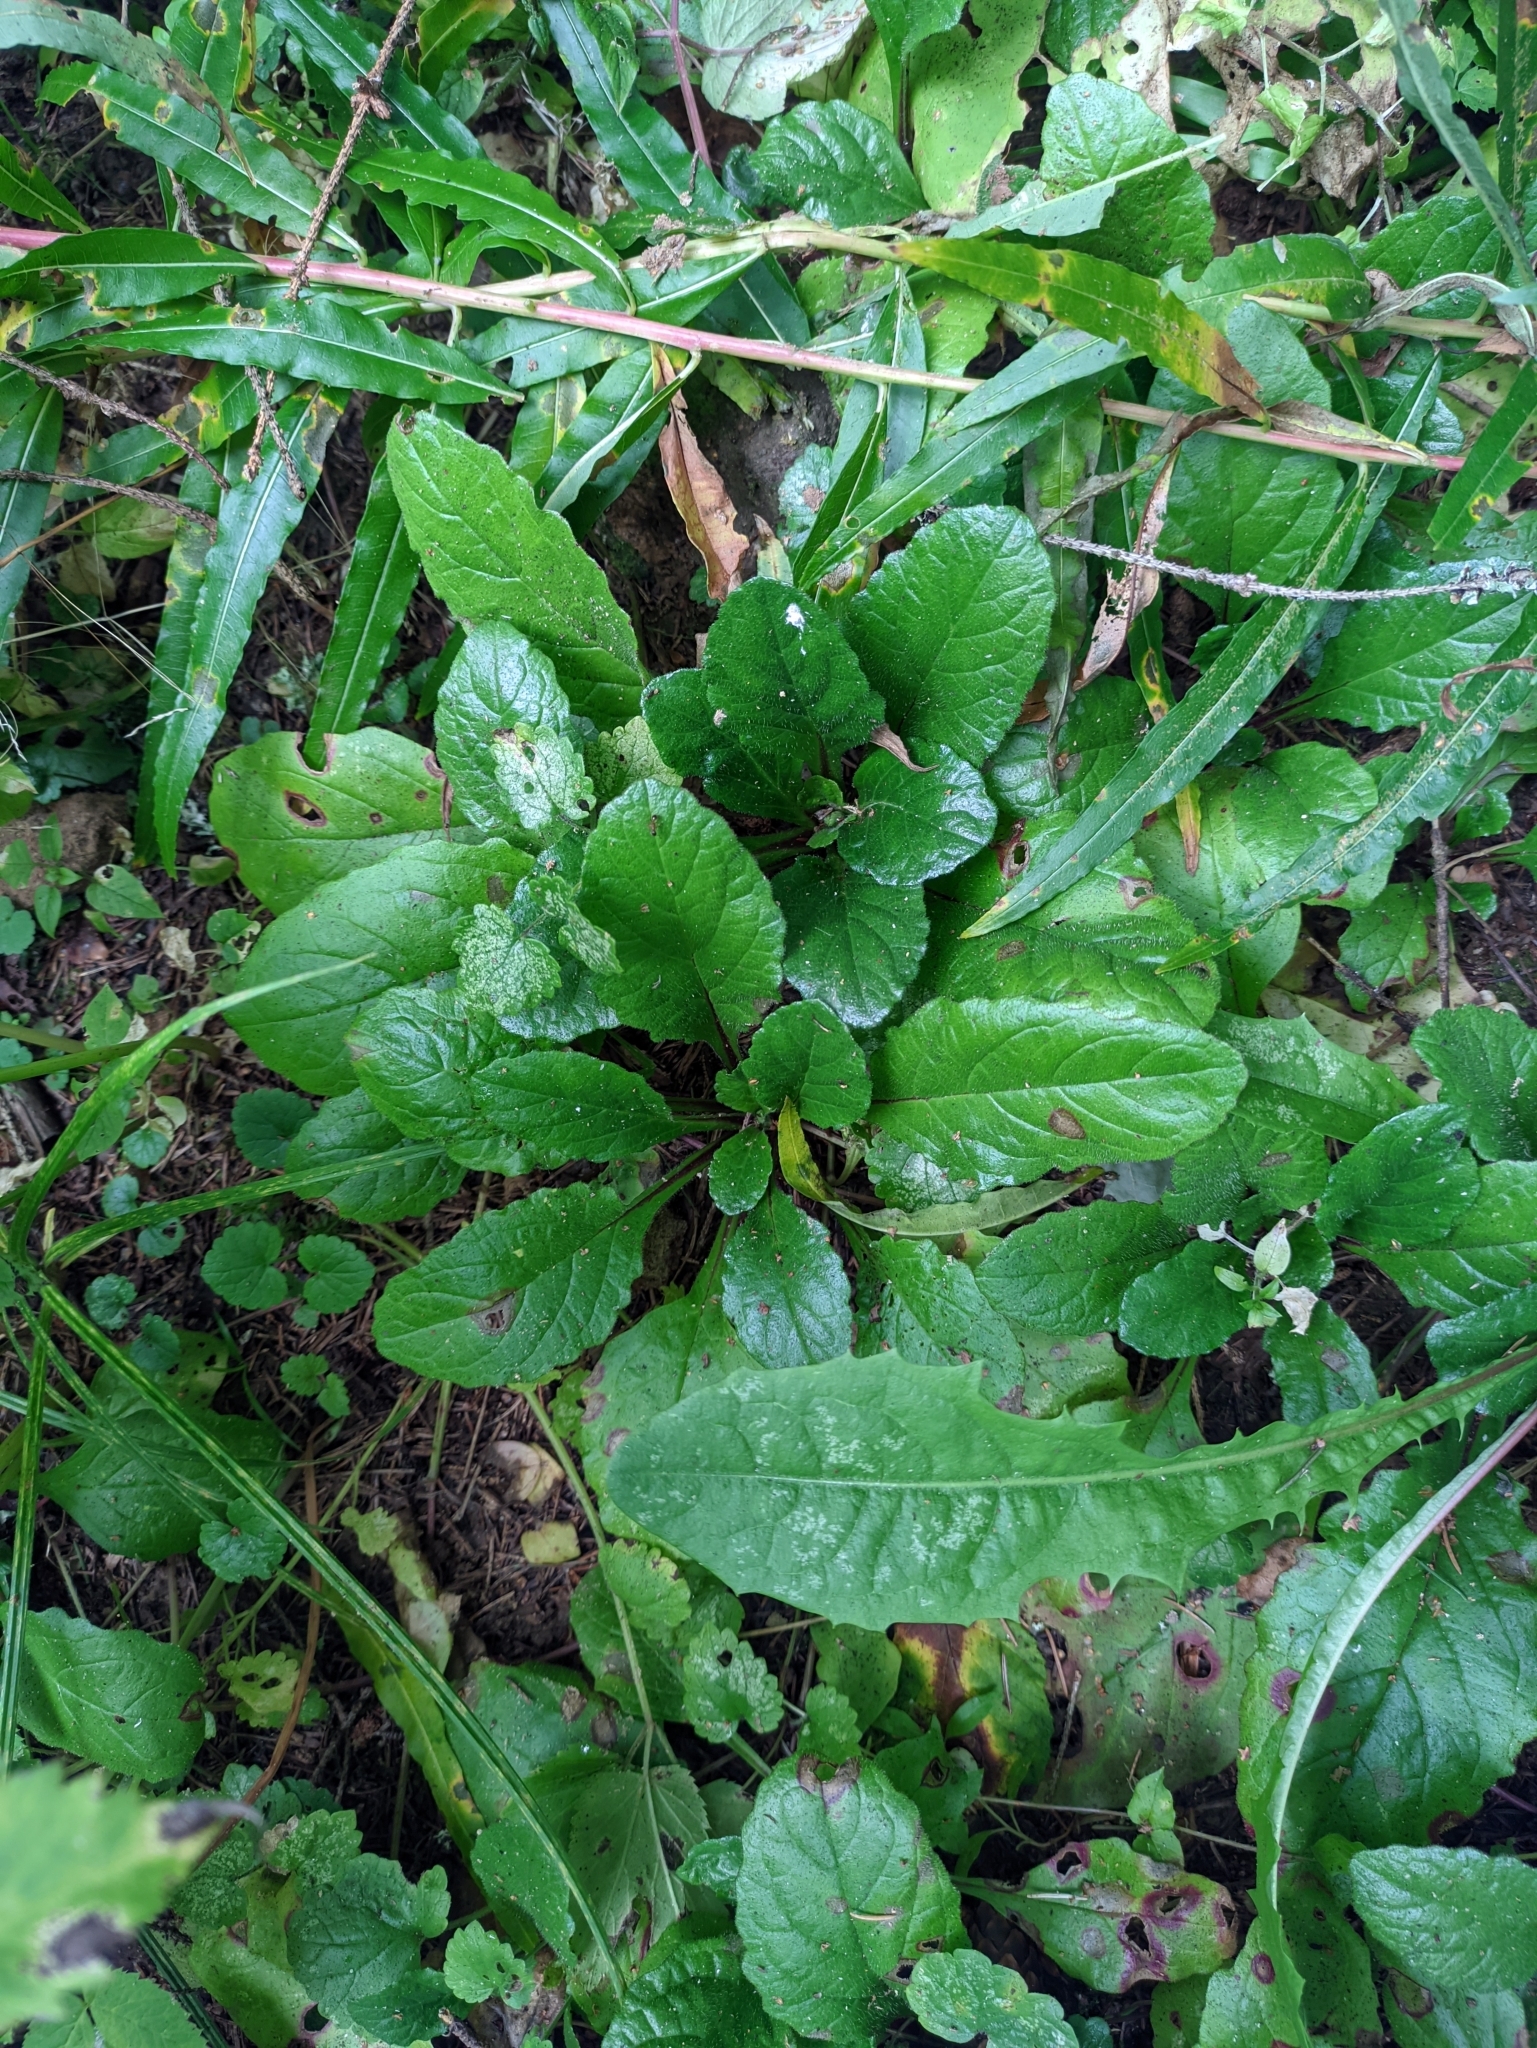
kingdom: Plantae
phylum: Tracheophyta
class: Magnoliopsida
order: Lamiales
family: Lamiaceae
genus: Ajuga
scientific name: Ajuga reptans
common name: Bugle
